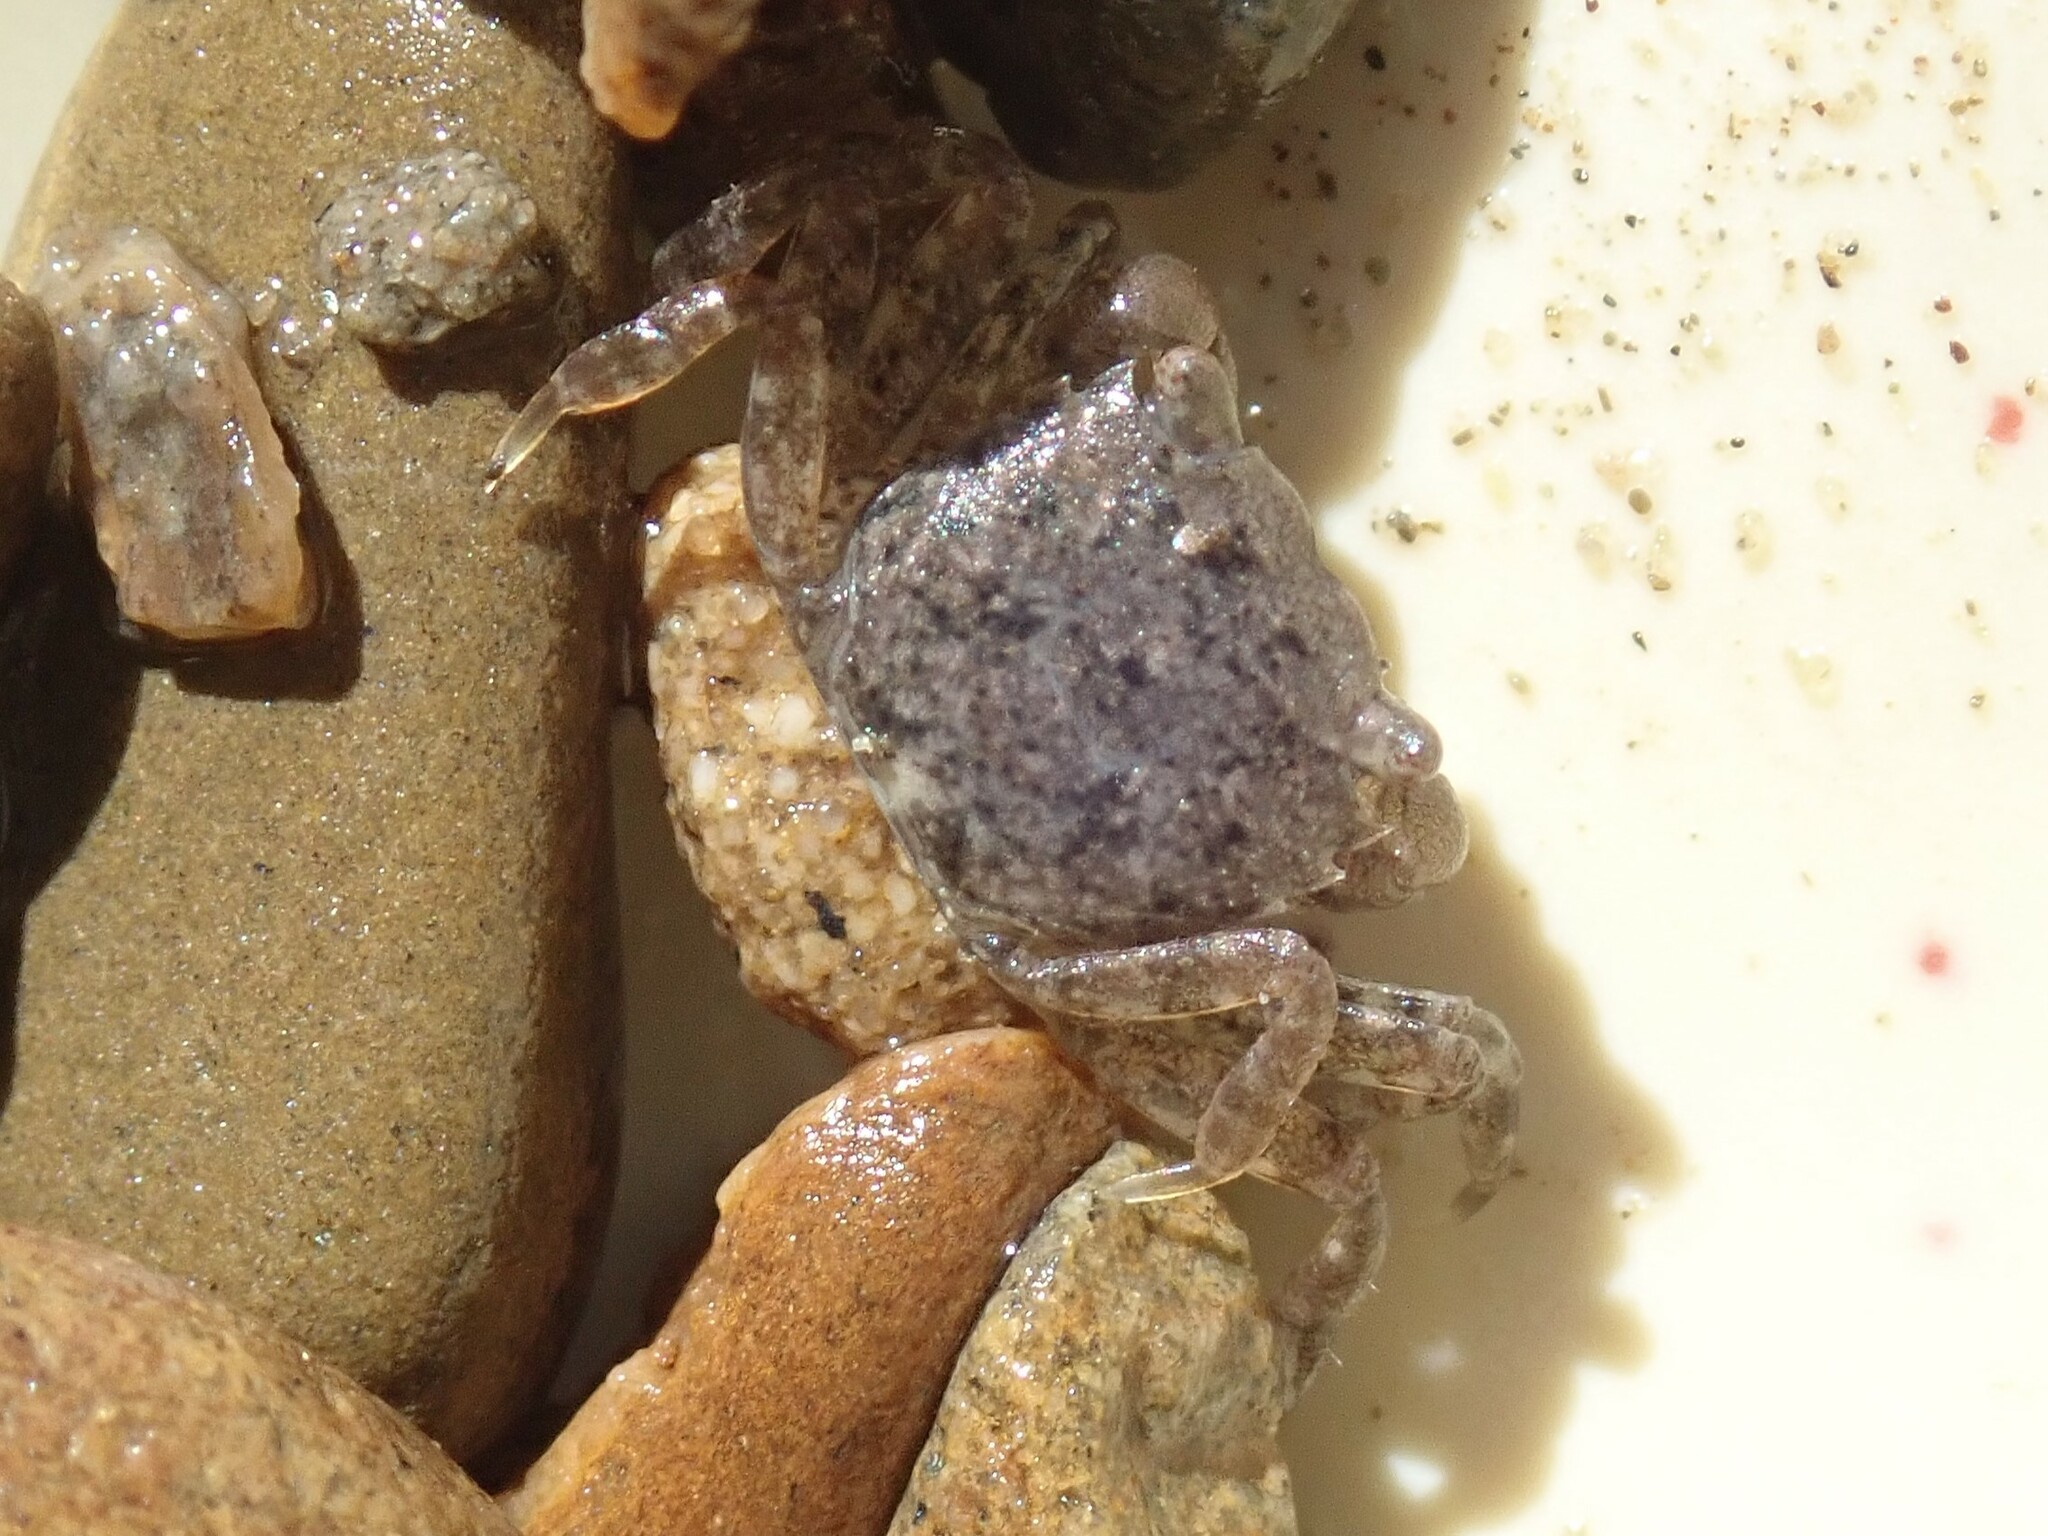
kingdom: Animalia
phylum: Arthropoda
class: Malacostraca
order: Decapoda
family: Varunidae
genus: Hemigrapsus
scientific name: Hemigrapsus oregonensis
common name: Yellow shore crab
